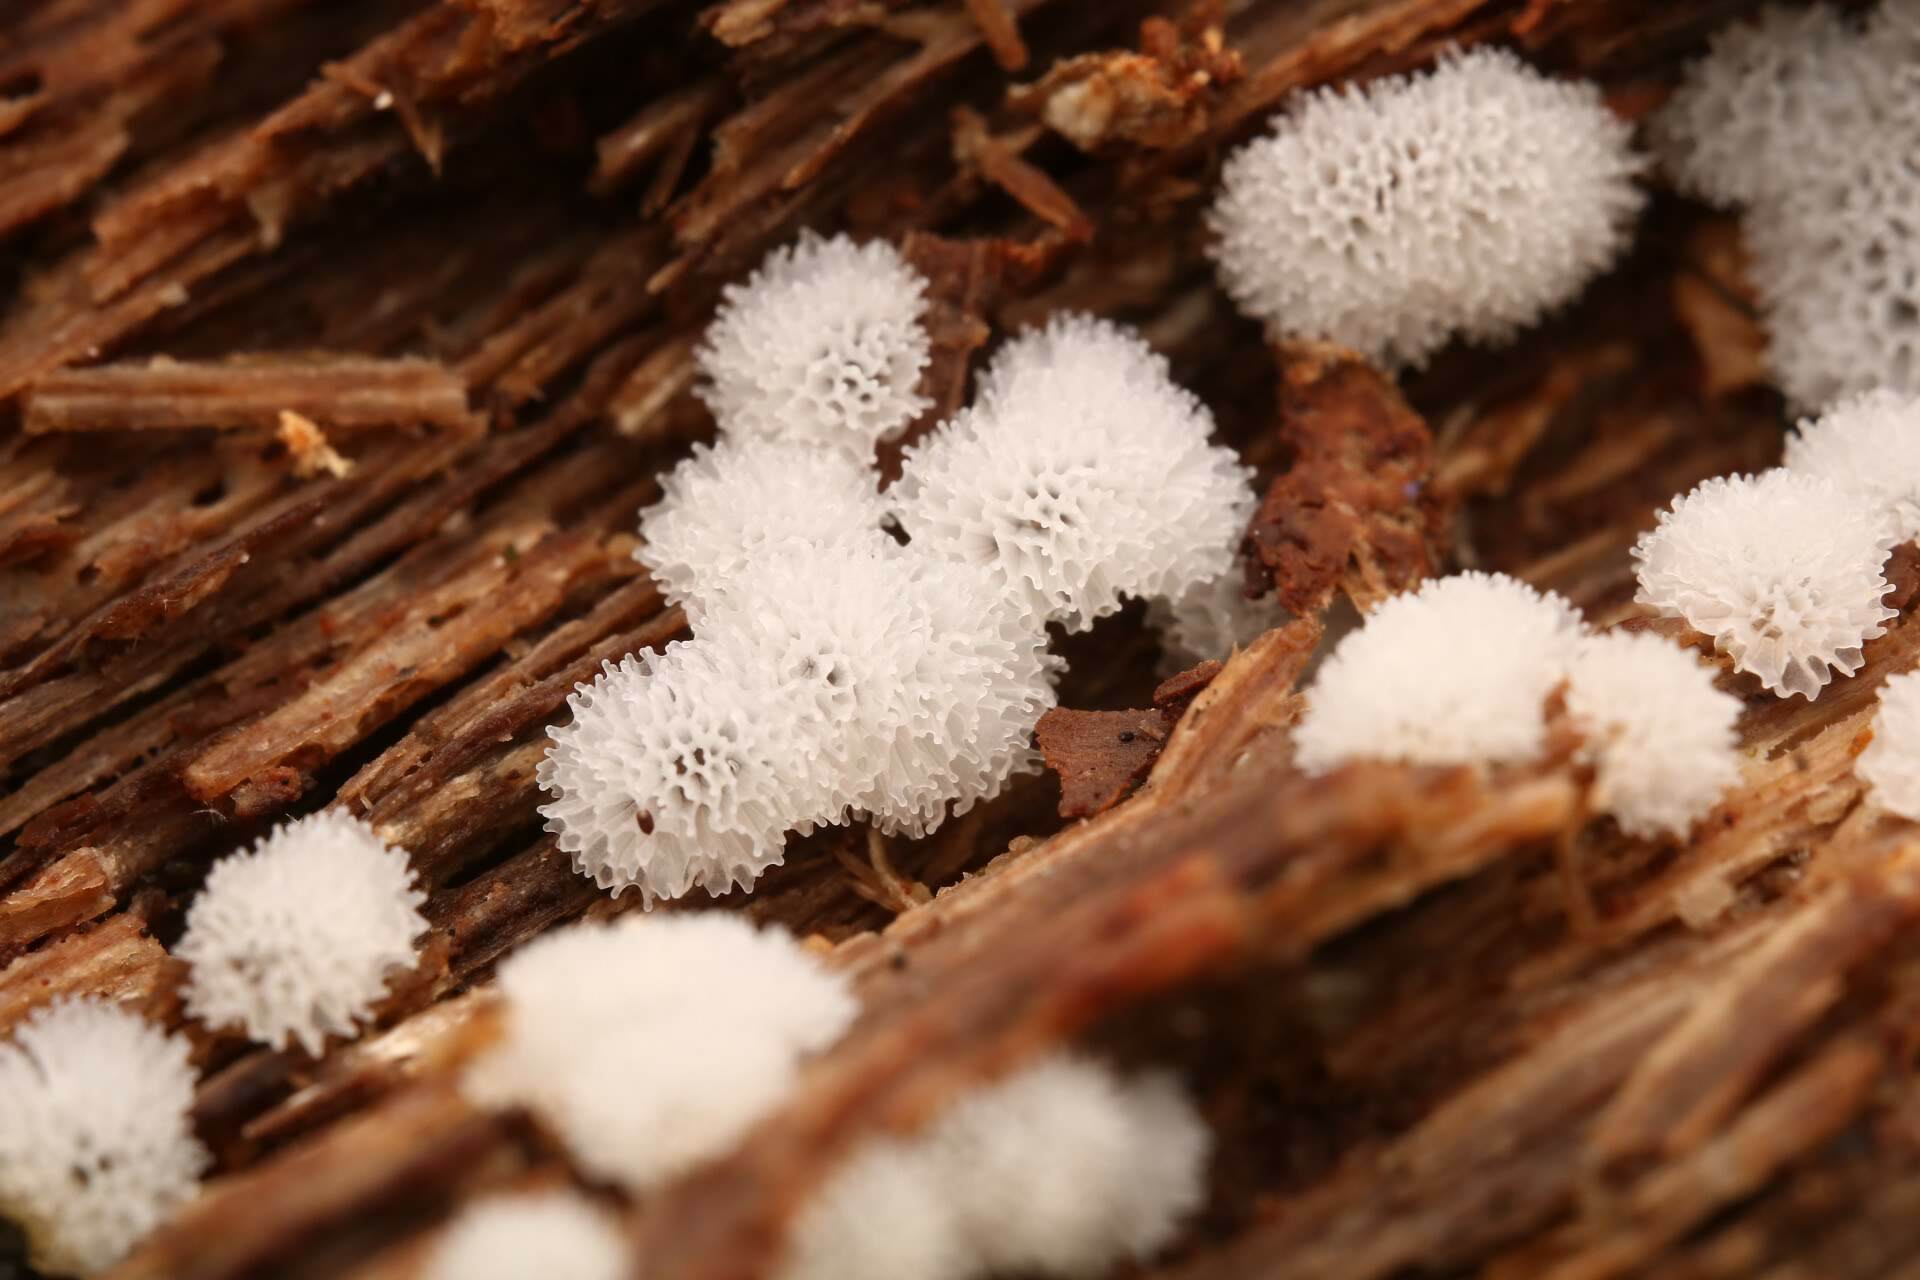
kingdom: Protozoa
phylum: Mycetozoa
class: Protosteliomycetes
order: Ceratiomyxales
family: Ceratiomyxaceae
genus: Ceratiomyxa
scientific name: Ceratiomyxa fruticulosa
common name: Honeycomb coral slime mold
